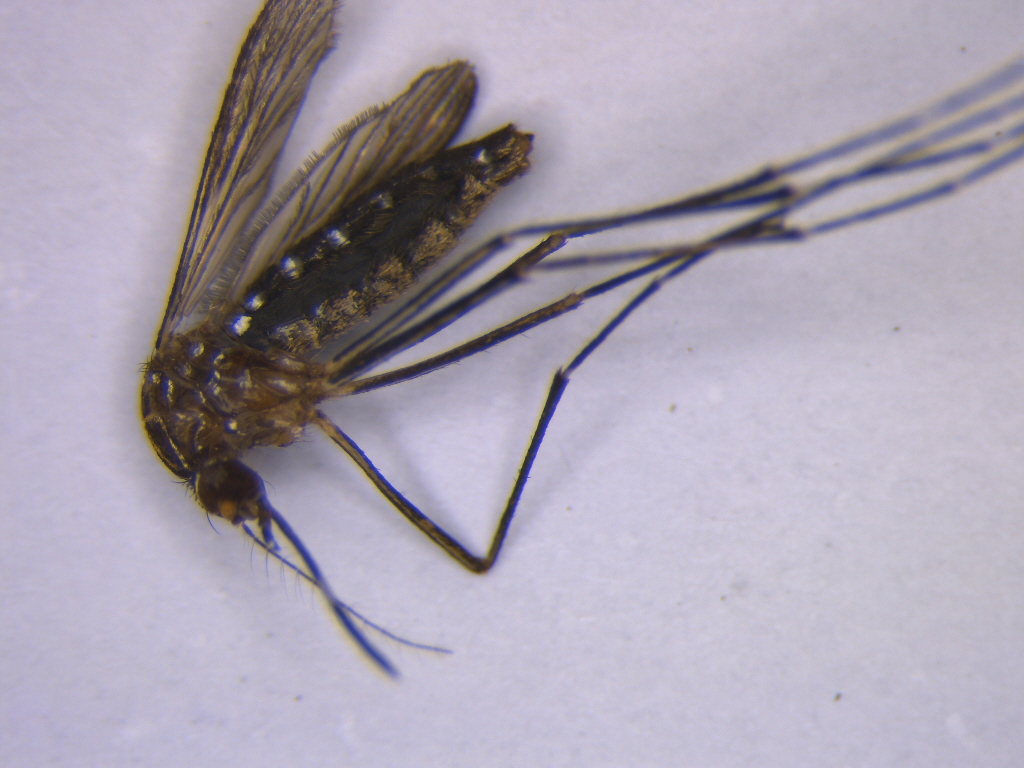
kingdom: Animalia
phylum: Arthropoda
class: Insecta
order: Diptera
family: Culicidae
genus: Aedes
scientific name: Aedes notoscriptus
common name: Australian backyard mosquito
